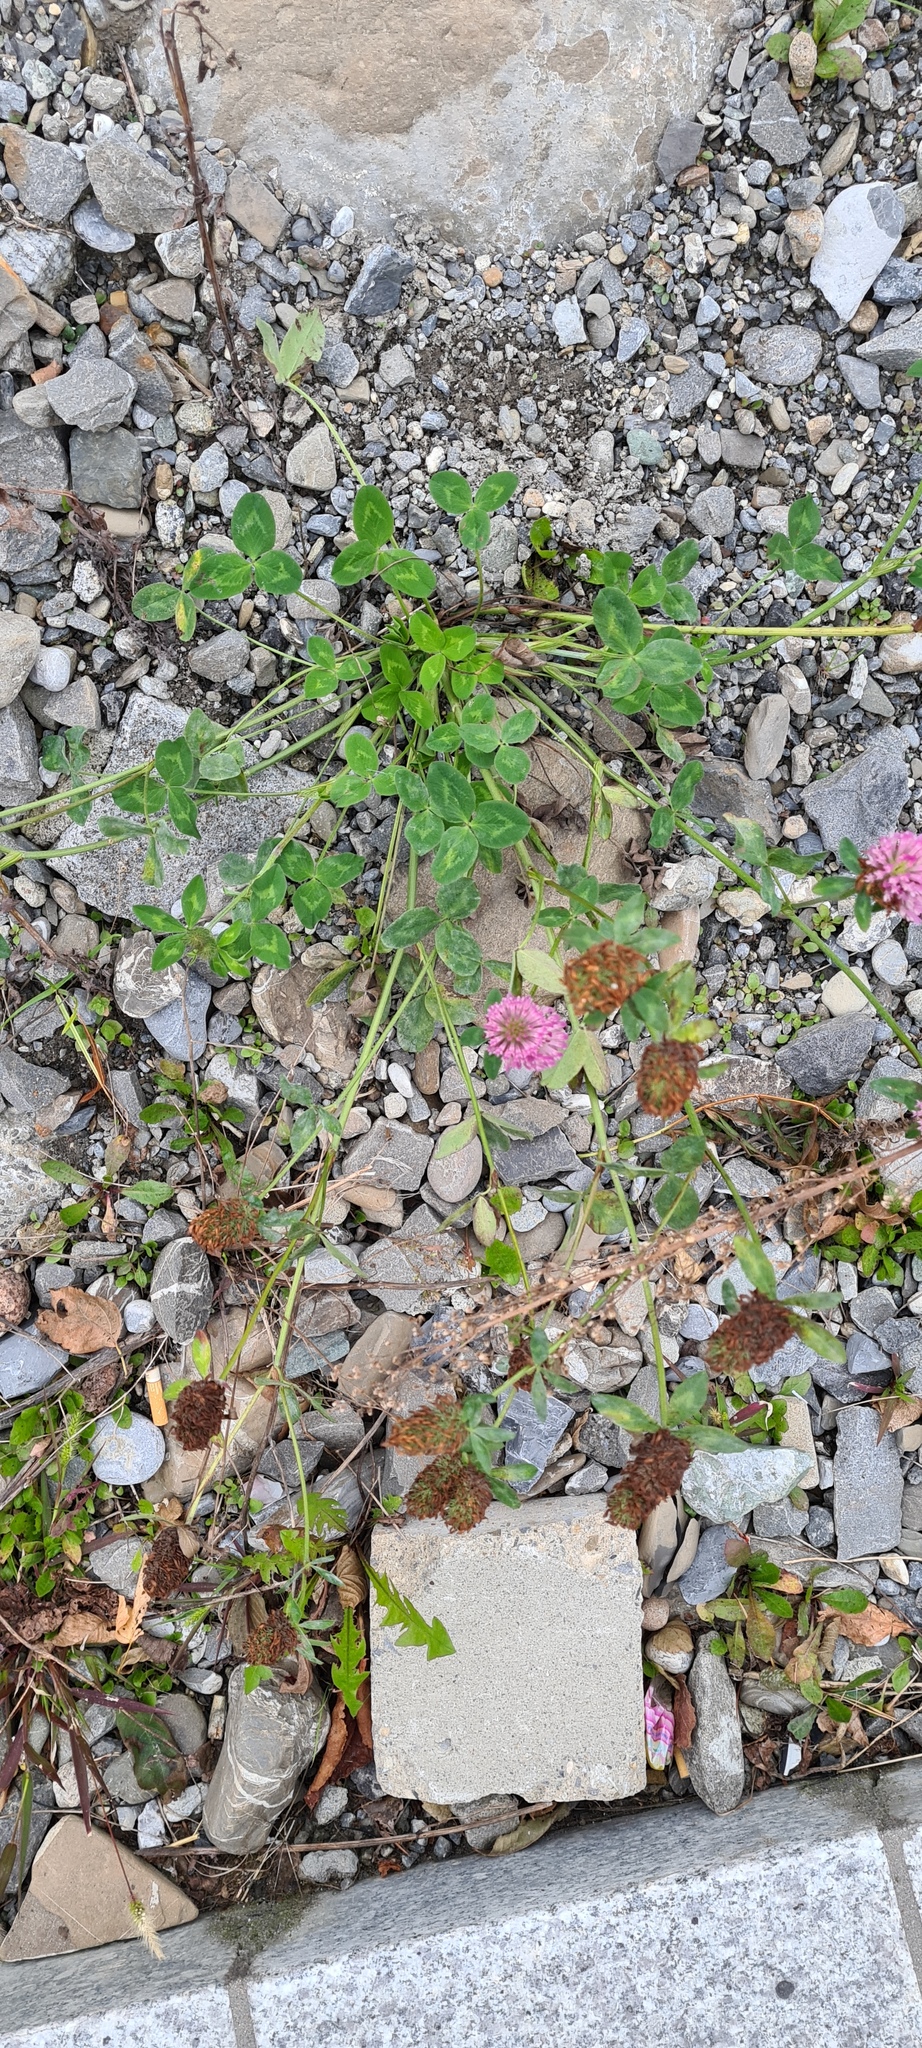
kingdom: Plantae
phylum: Tracheophyta
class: Magnoliopsida
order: Fabales
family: Fabaceae
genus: Trifolium
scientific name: Trifolium pratense
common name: Red clover
